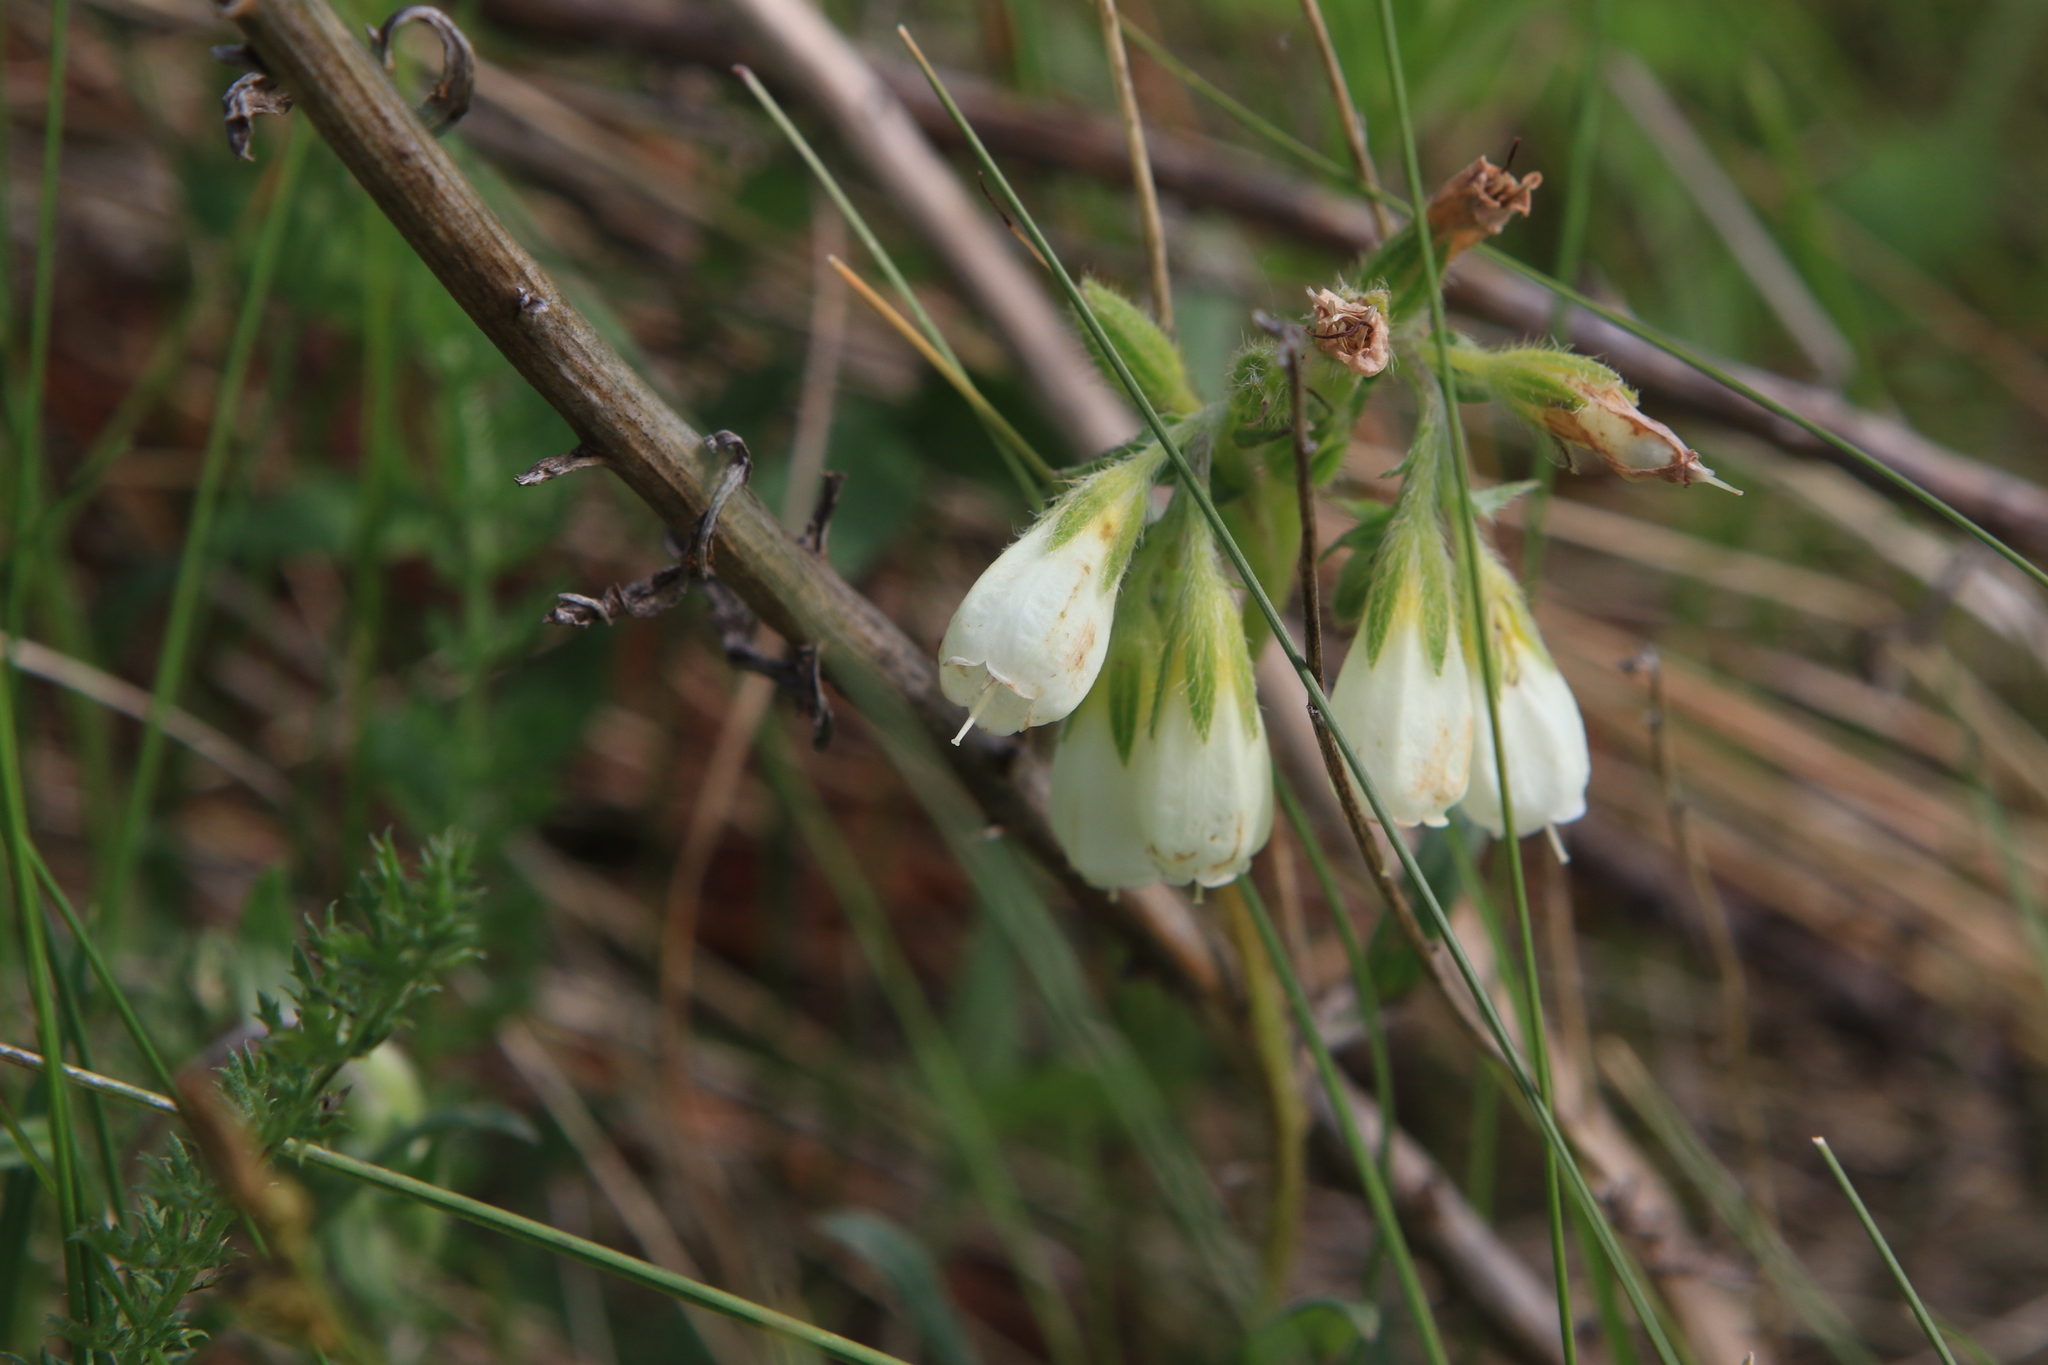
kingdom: Plantae
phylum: Tracheophyta
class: Magnoliopsida
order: Boraginales
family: Boraginaceae
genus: Onosma
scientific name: Onosma simplicissima
